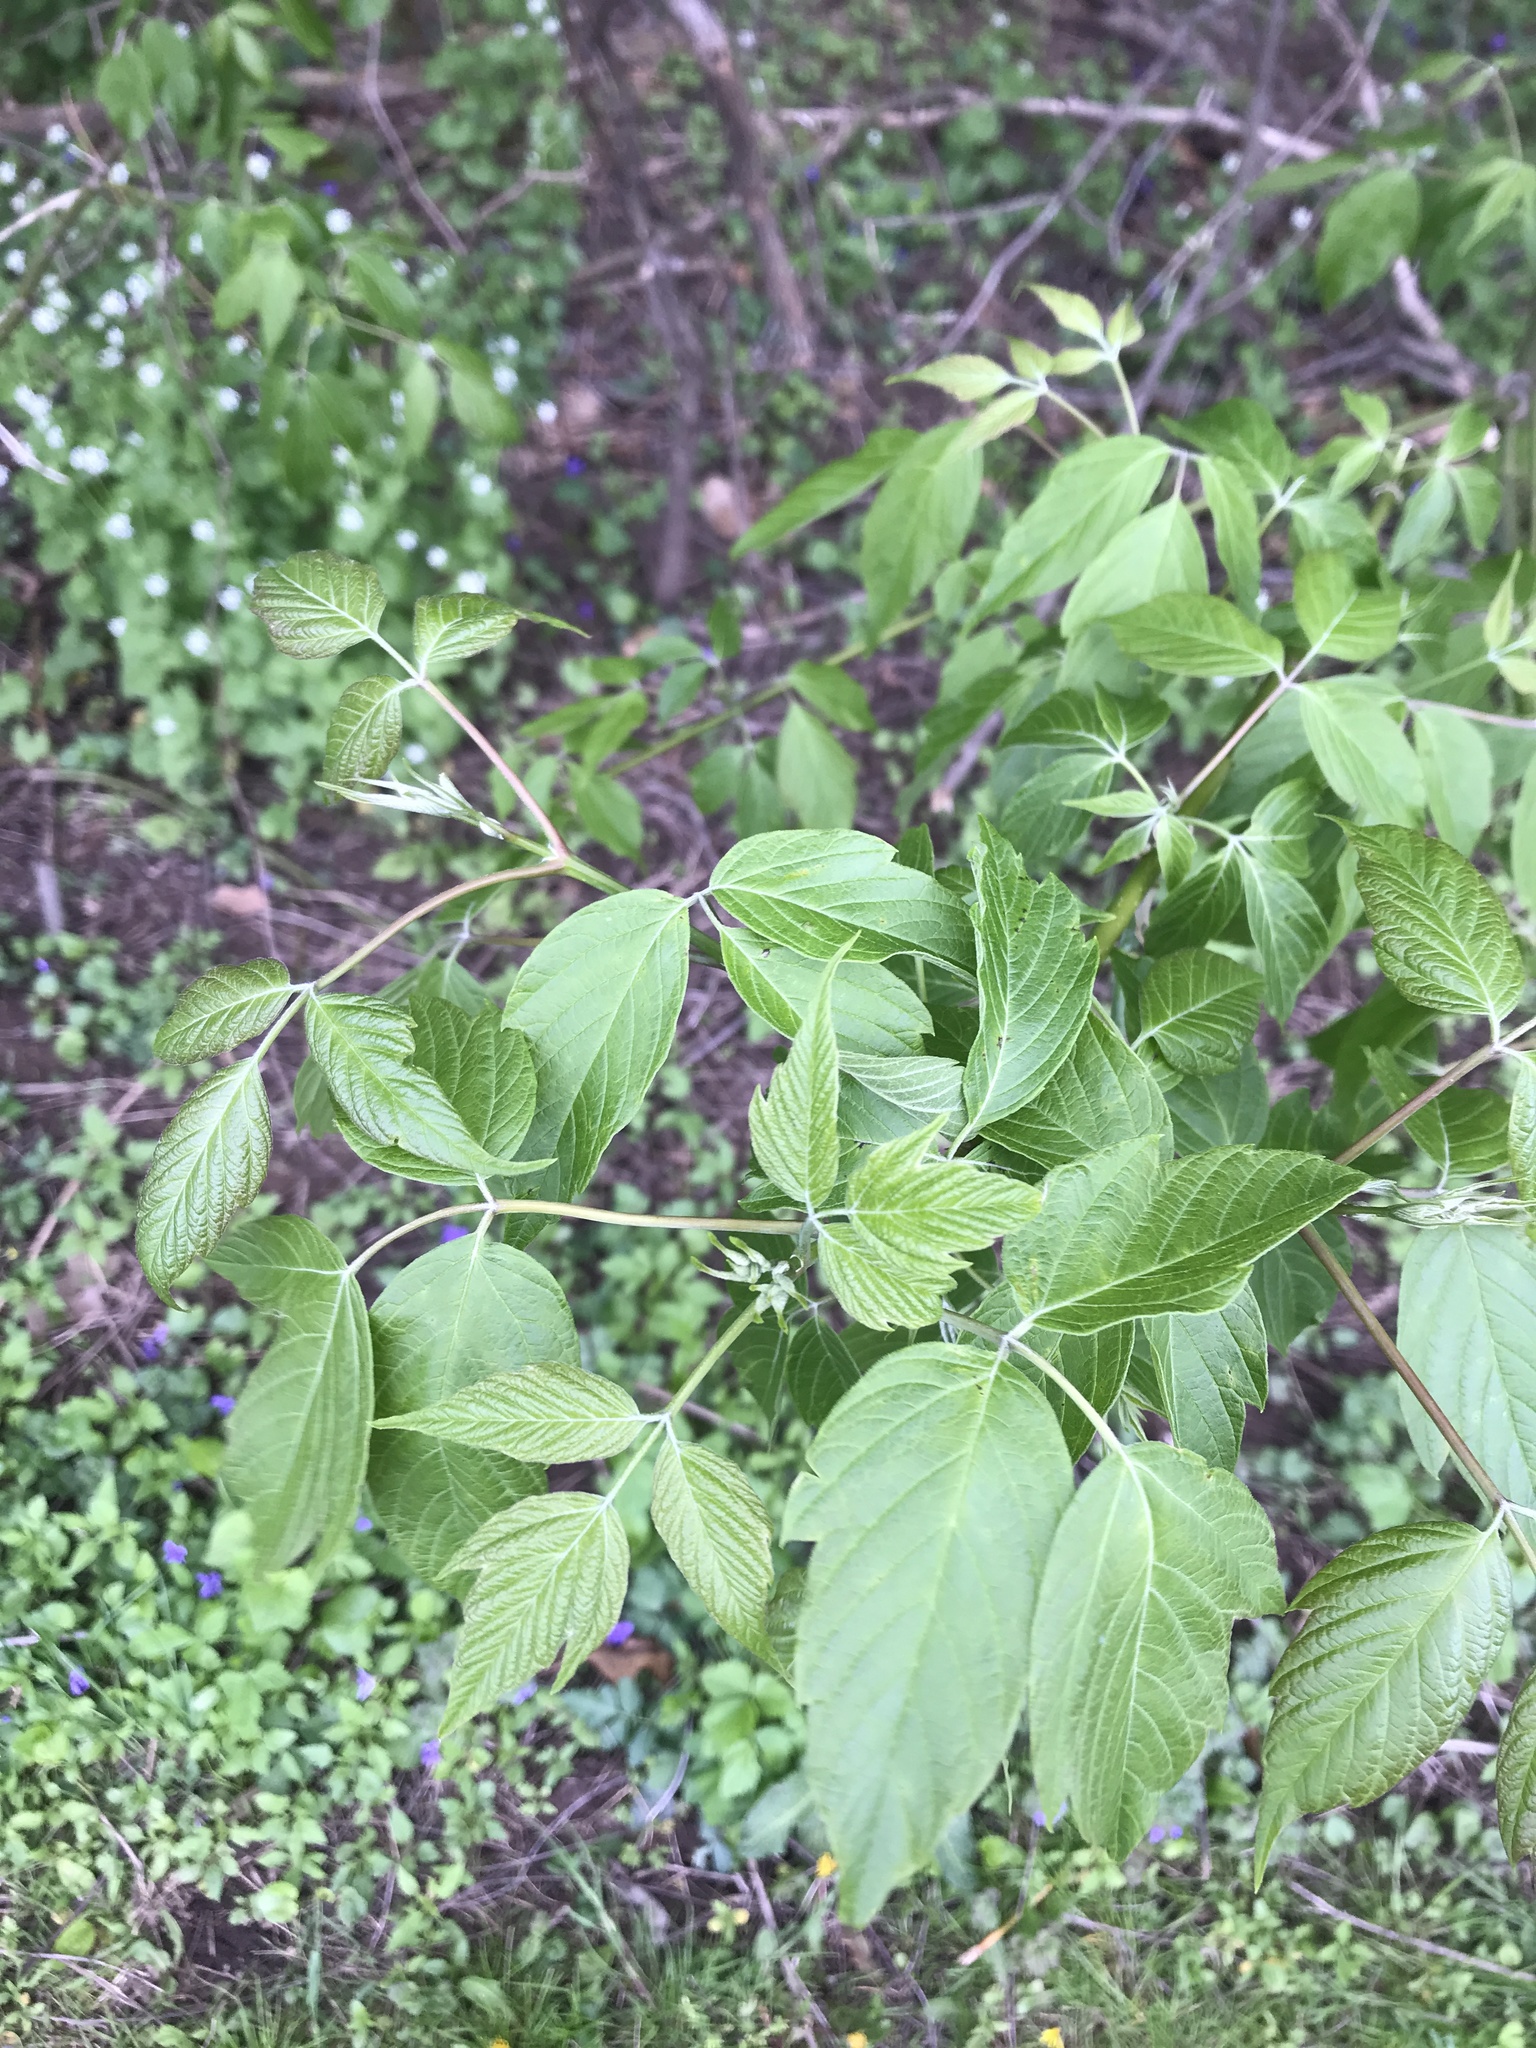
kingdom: Plantae
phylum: Tracheophyta
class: Magnoliopsida
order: Sapindales
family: Sapindaceae
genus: Acer
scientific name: Acer negundo
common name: Ashleaf maple
